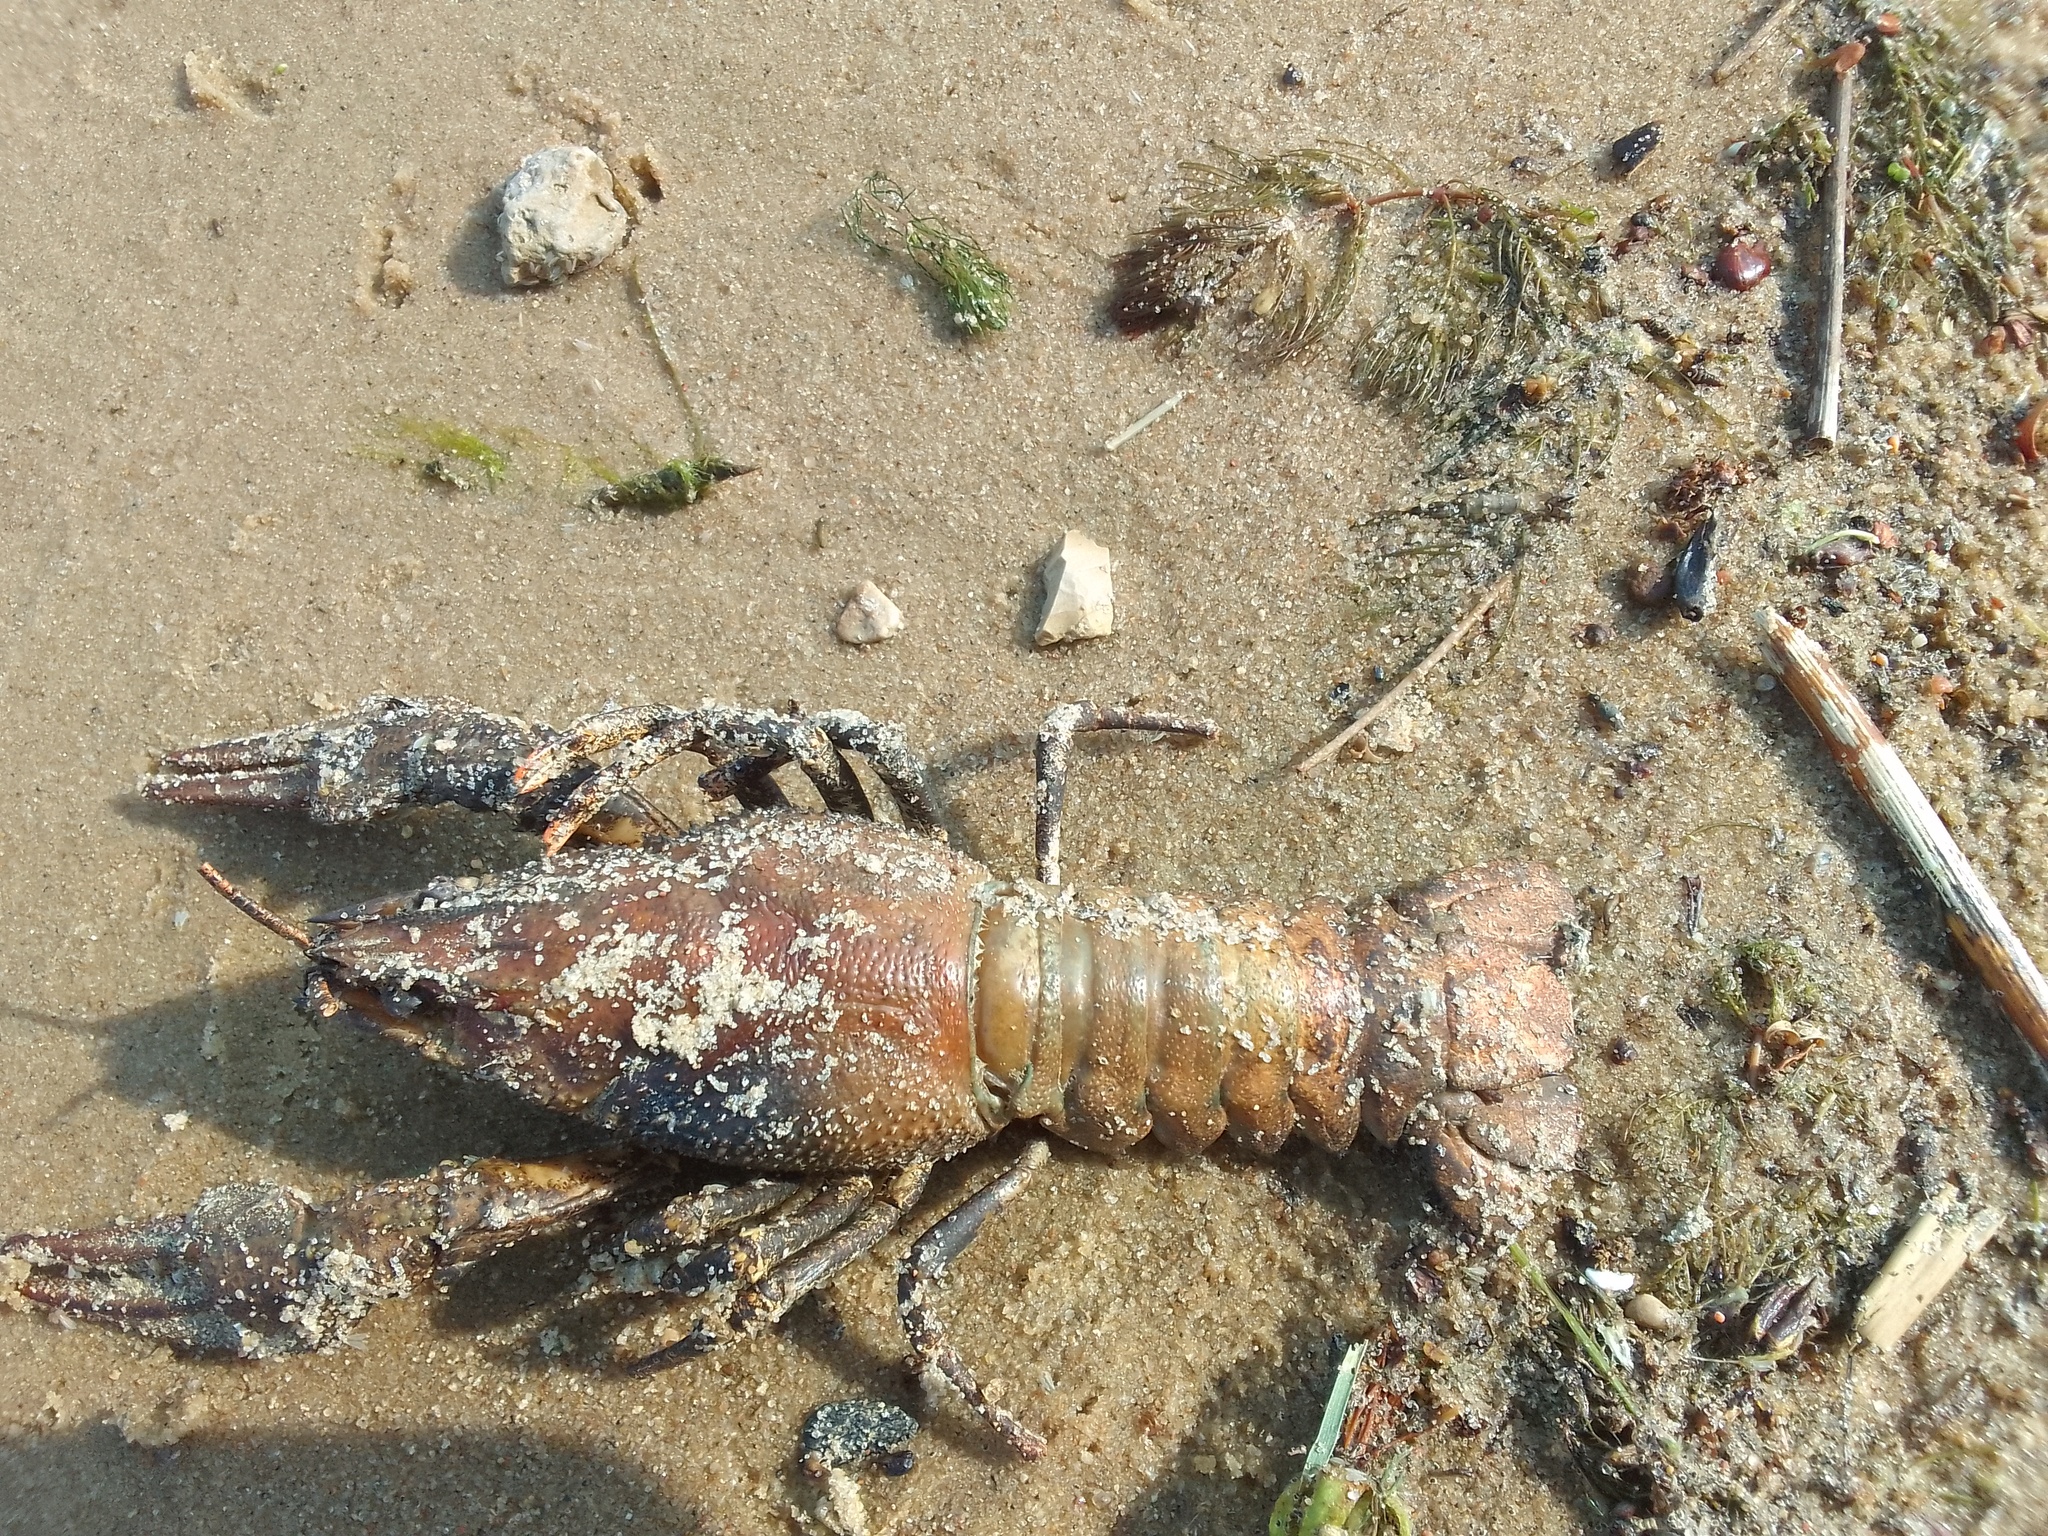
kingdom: Animalia
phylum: Arthropoda
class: Malacostraca
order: Decapoda
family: Astacidae
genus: Pontastacus
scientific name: Pontastacus leptodactylus
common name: Danube crayfish
